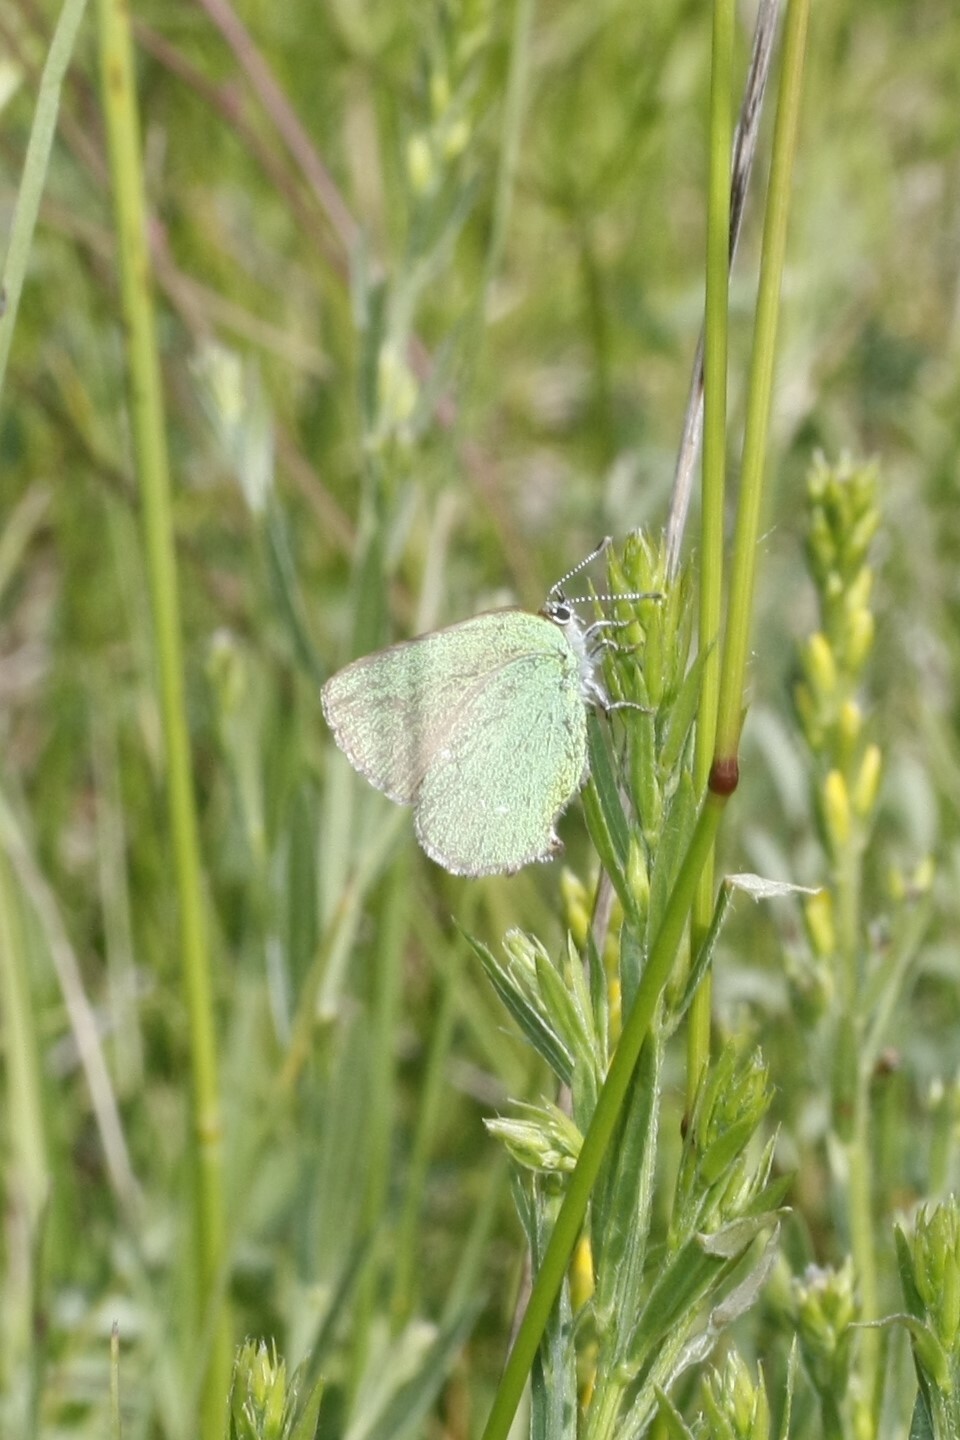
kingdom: Animalia
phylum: Arthropoda
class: Insecta
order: Lepidoptera
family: Lycaenidae
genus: Callophrys
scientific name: Callophrys rubi
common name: Green hairstreak
